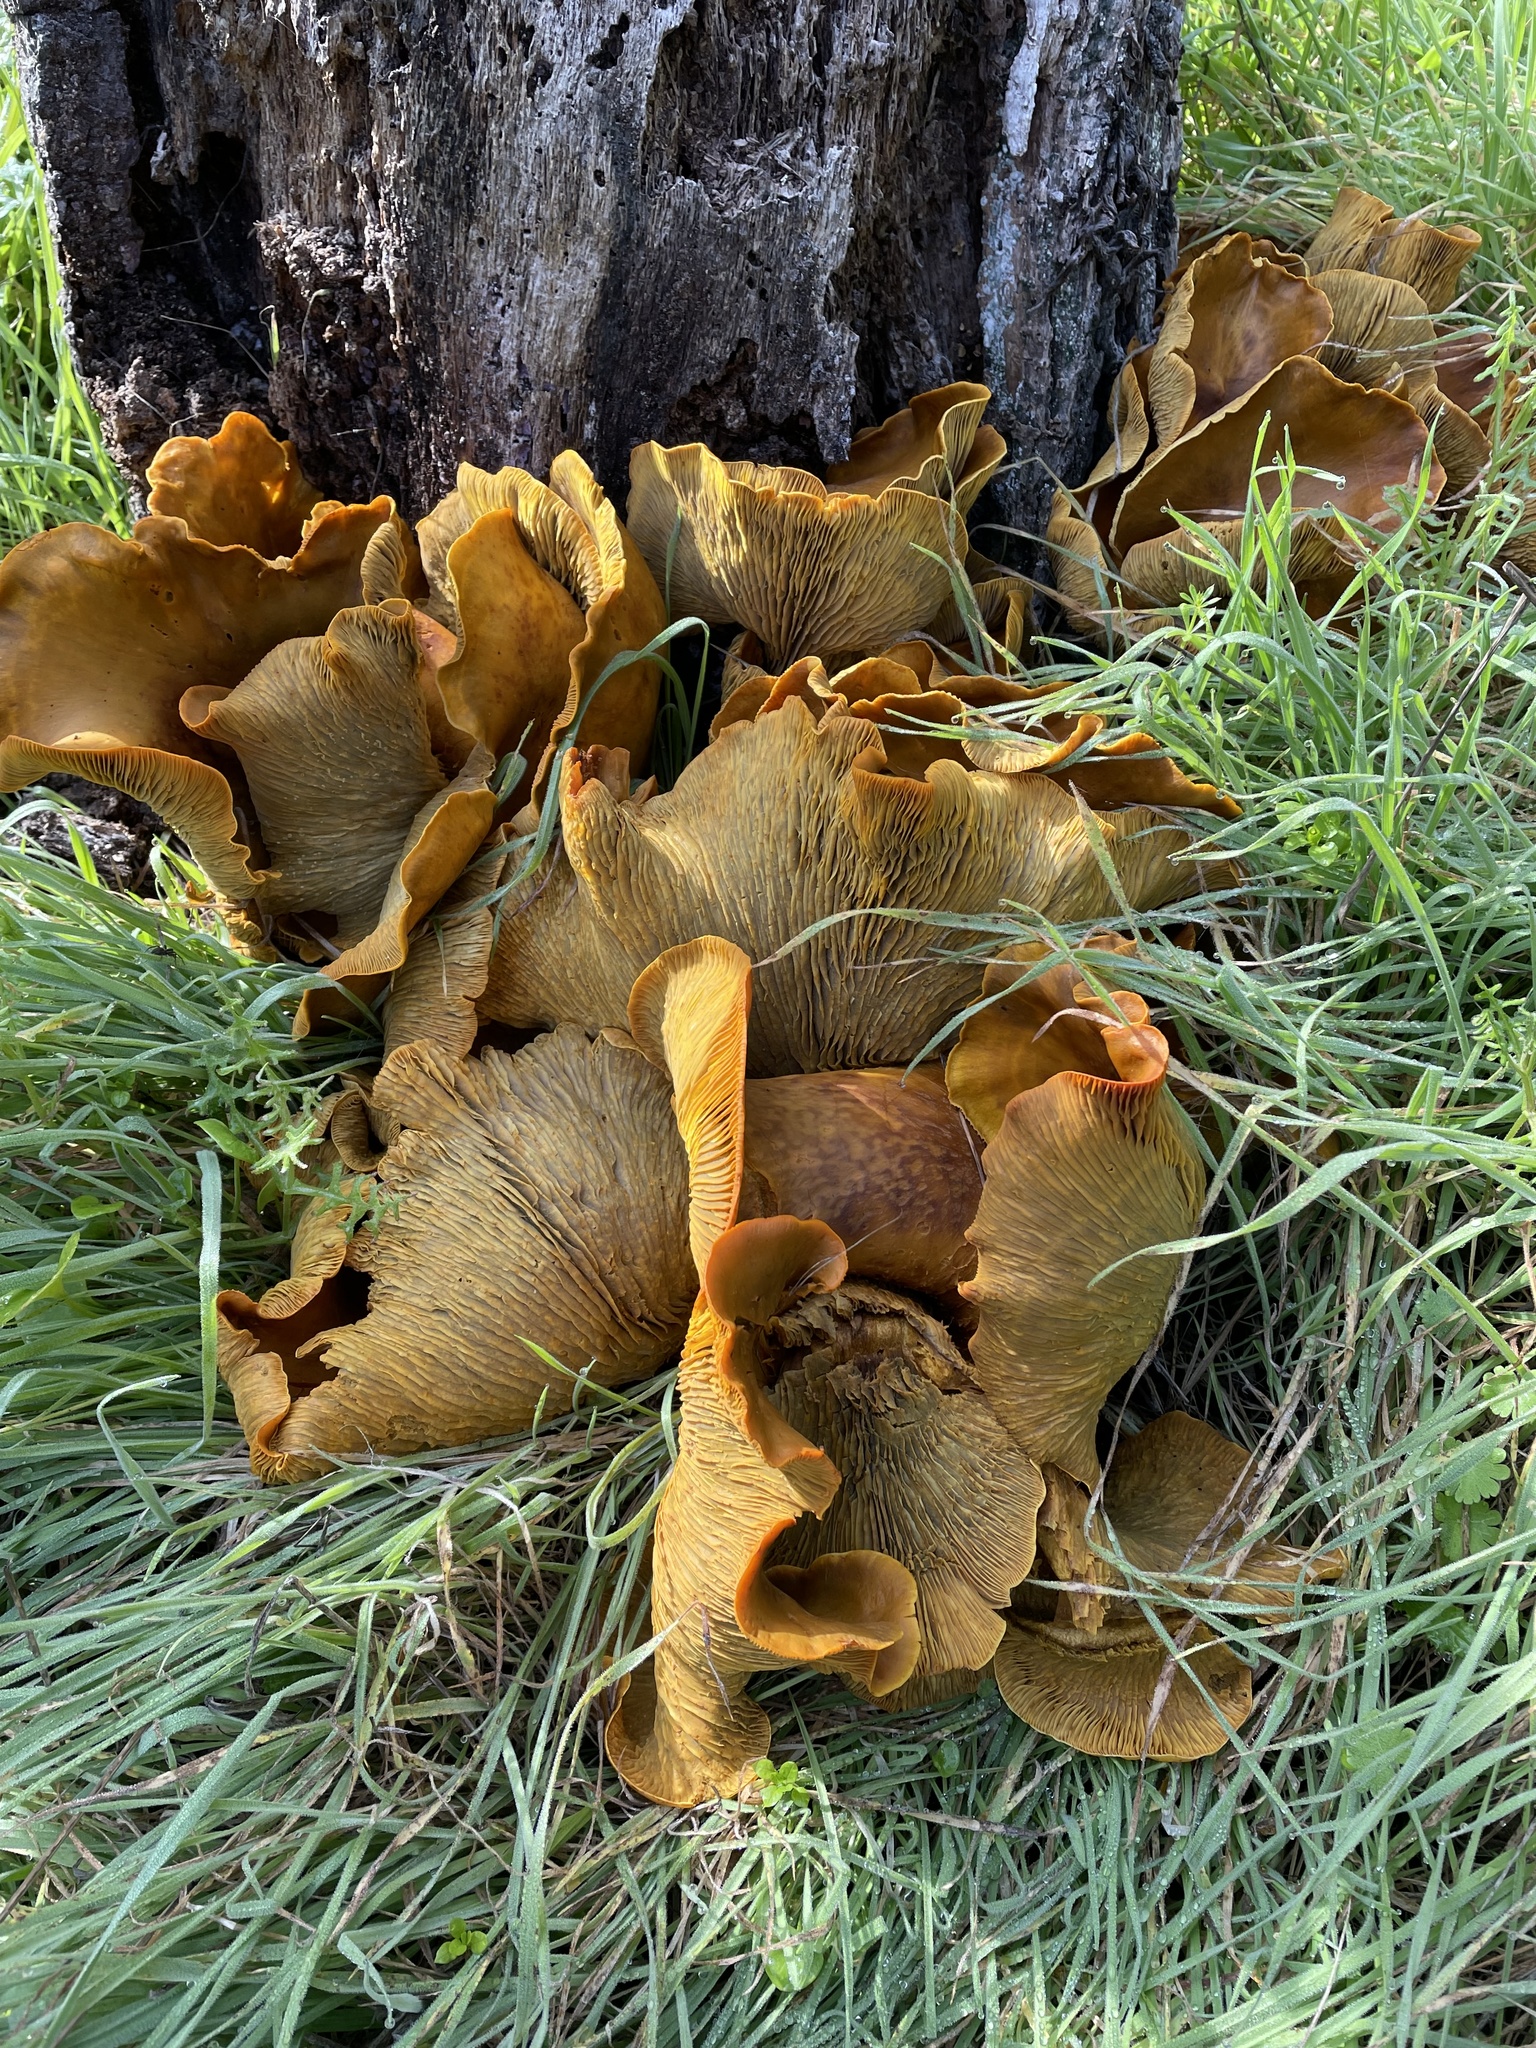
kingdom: Fungi
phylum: Basidiomycota
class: Agaricomycetes
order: Agaricales
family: Omphalotaceae
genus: Omphalotus
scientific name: Omphalotus olivascens
